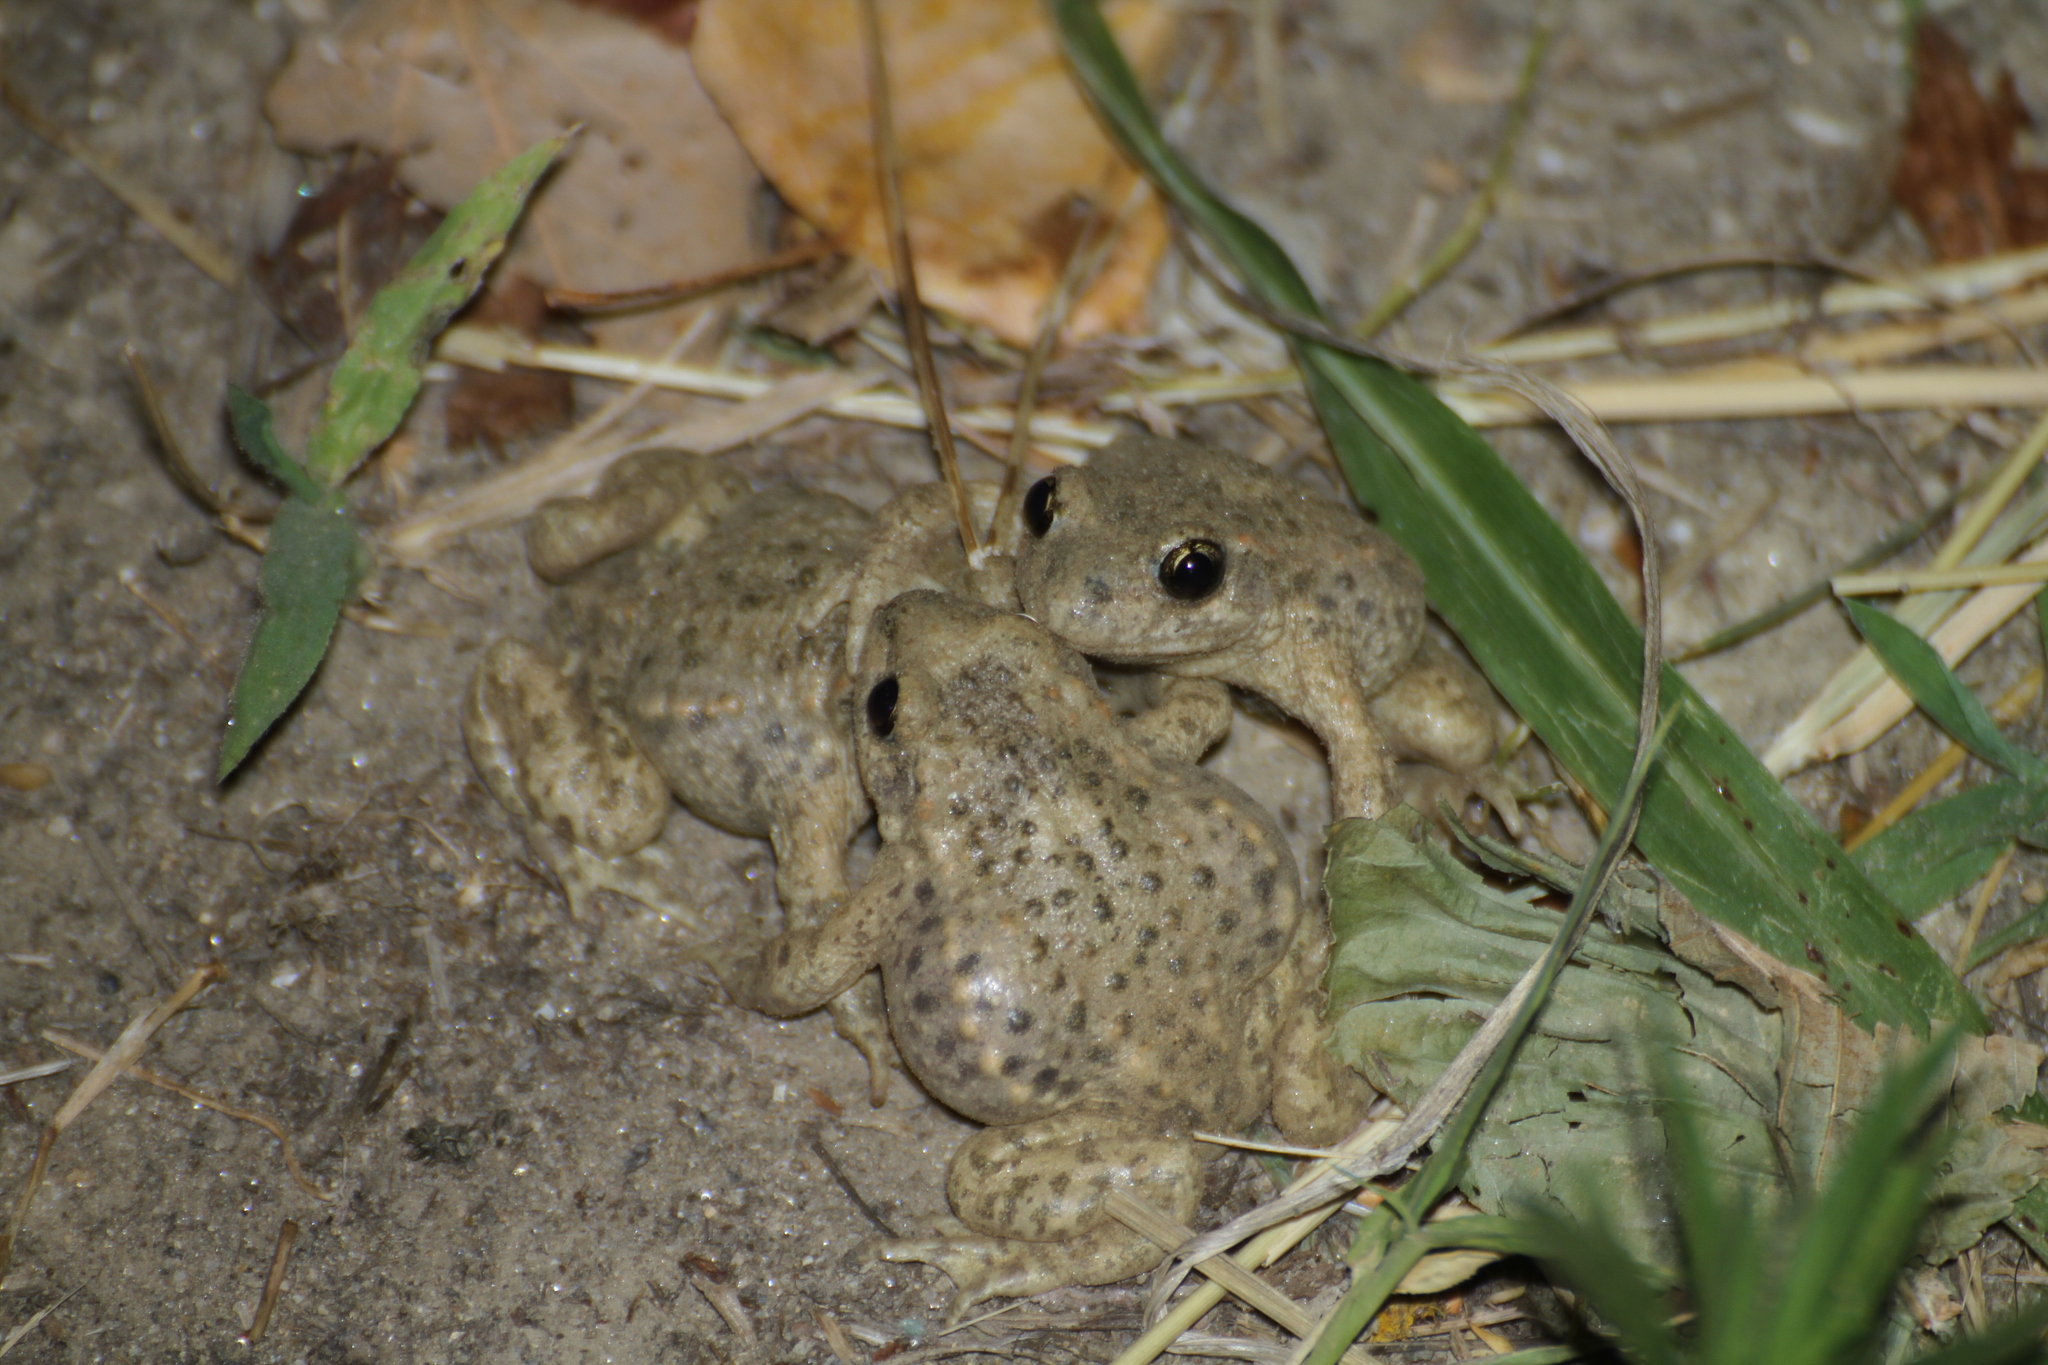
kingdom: Animalia
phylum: Chordata
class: Amphibia
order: Anura
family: Alytidae
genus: Alytes
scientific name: Alytes obstetricans
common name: Midwife toad
